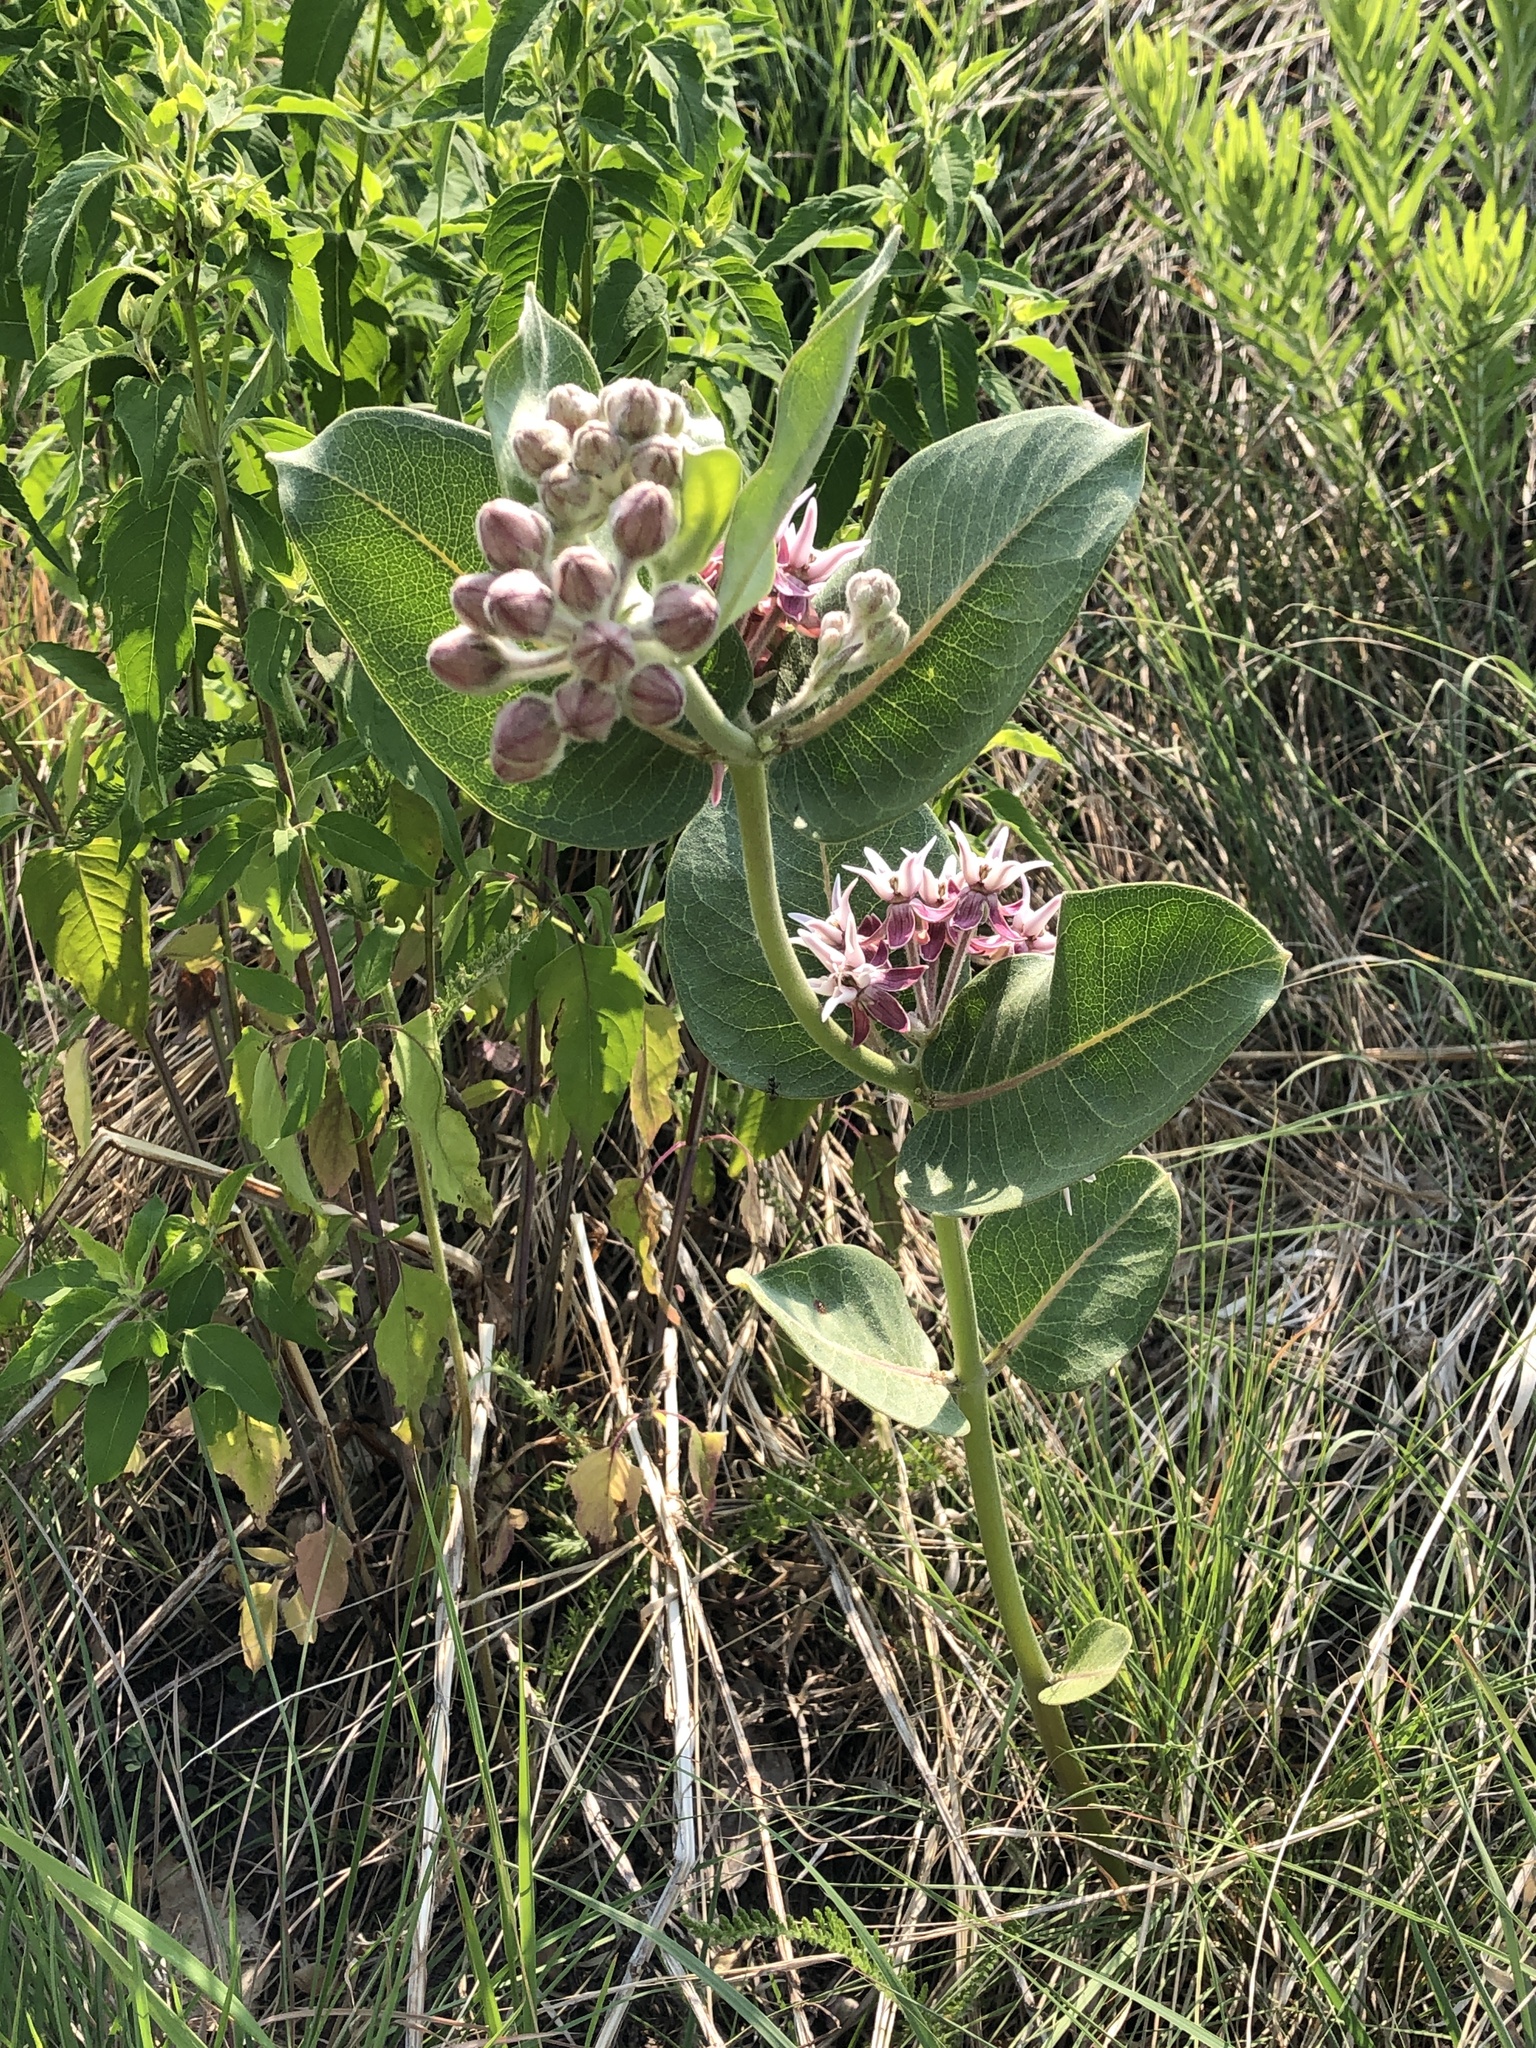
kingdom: Plantae
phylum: Tracheophyta
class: Magnoliopsida
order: Gentianales
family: Apocynaceae
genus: Asclepias
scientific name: Asclepias speciosa
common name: Showy milkweed
